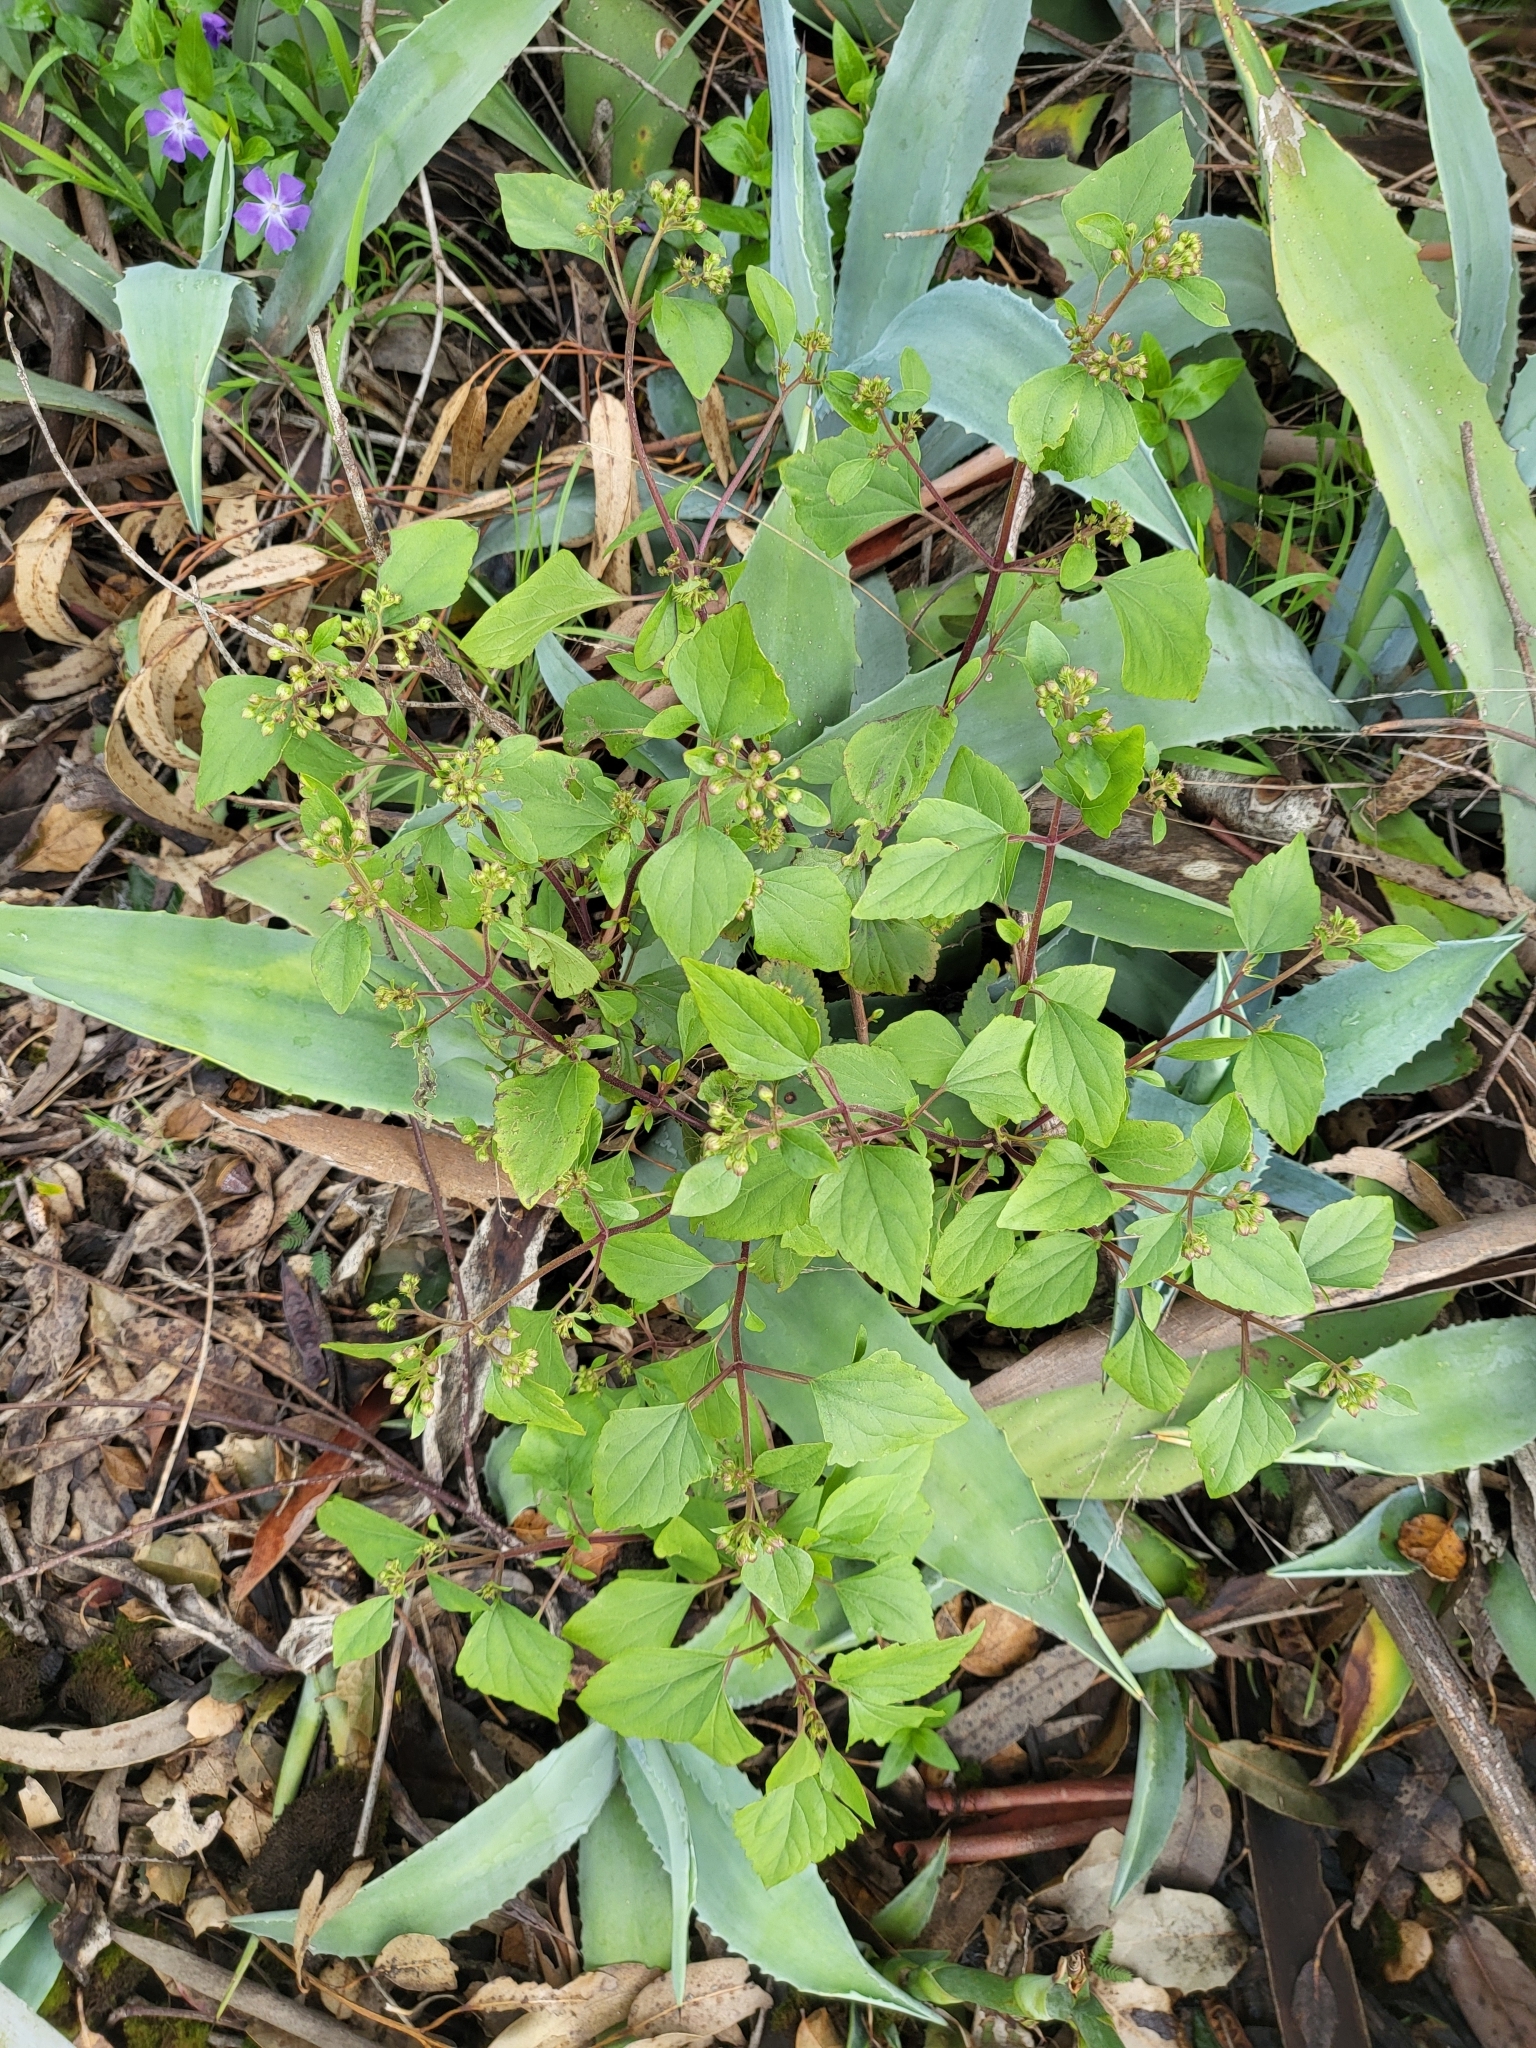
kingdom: Plantae
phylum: Tracheophyta
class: Magnoliopsida
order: Asterales
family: Asteraceae
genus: Ageratina
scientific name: Ageratina adenophora
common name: Sticky snakeroot
